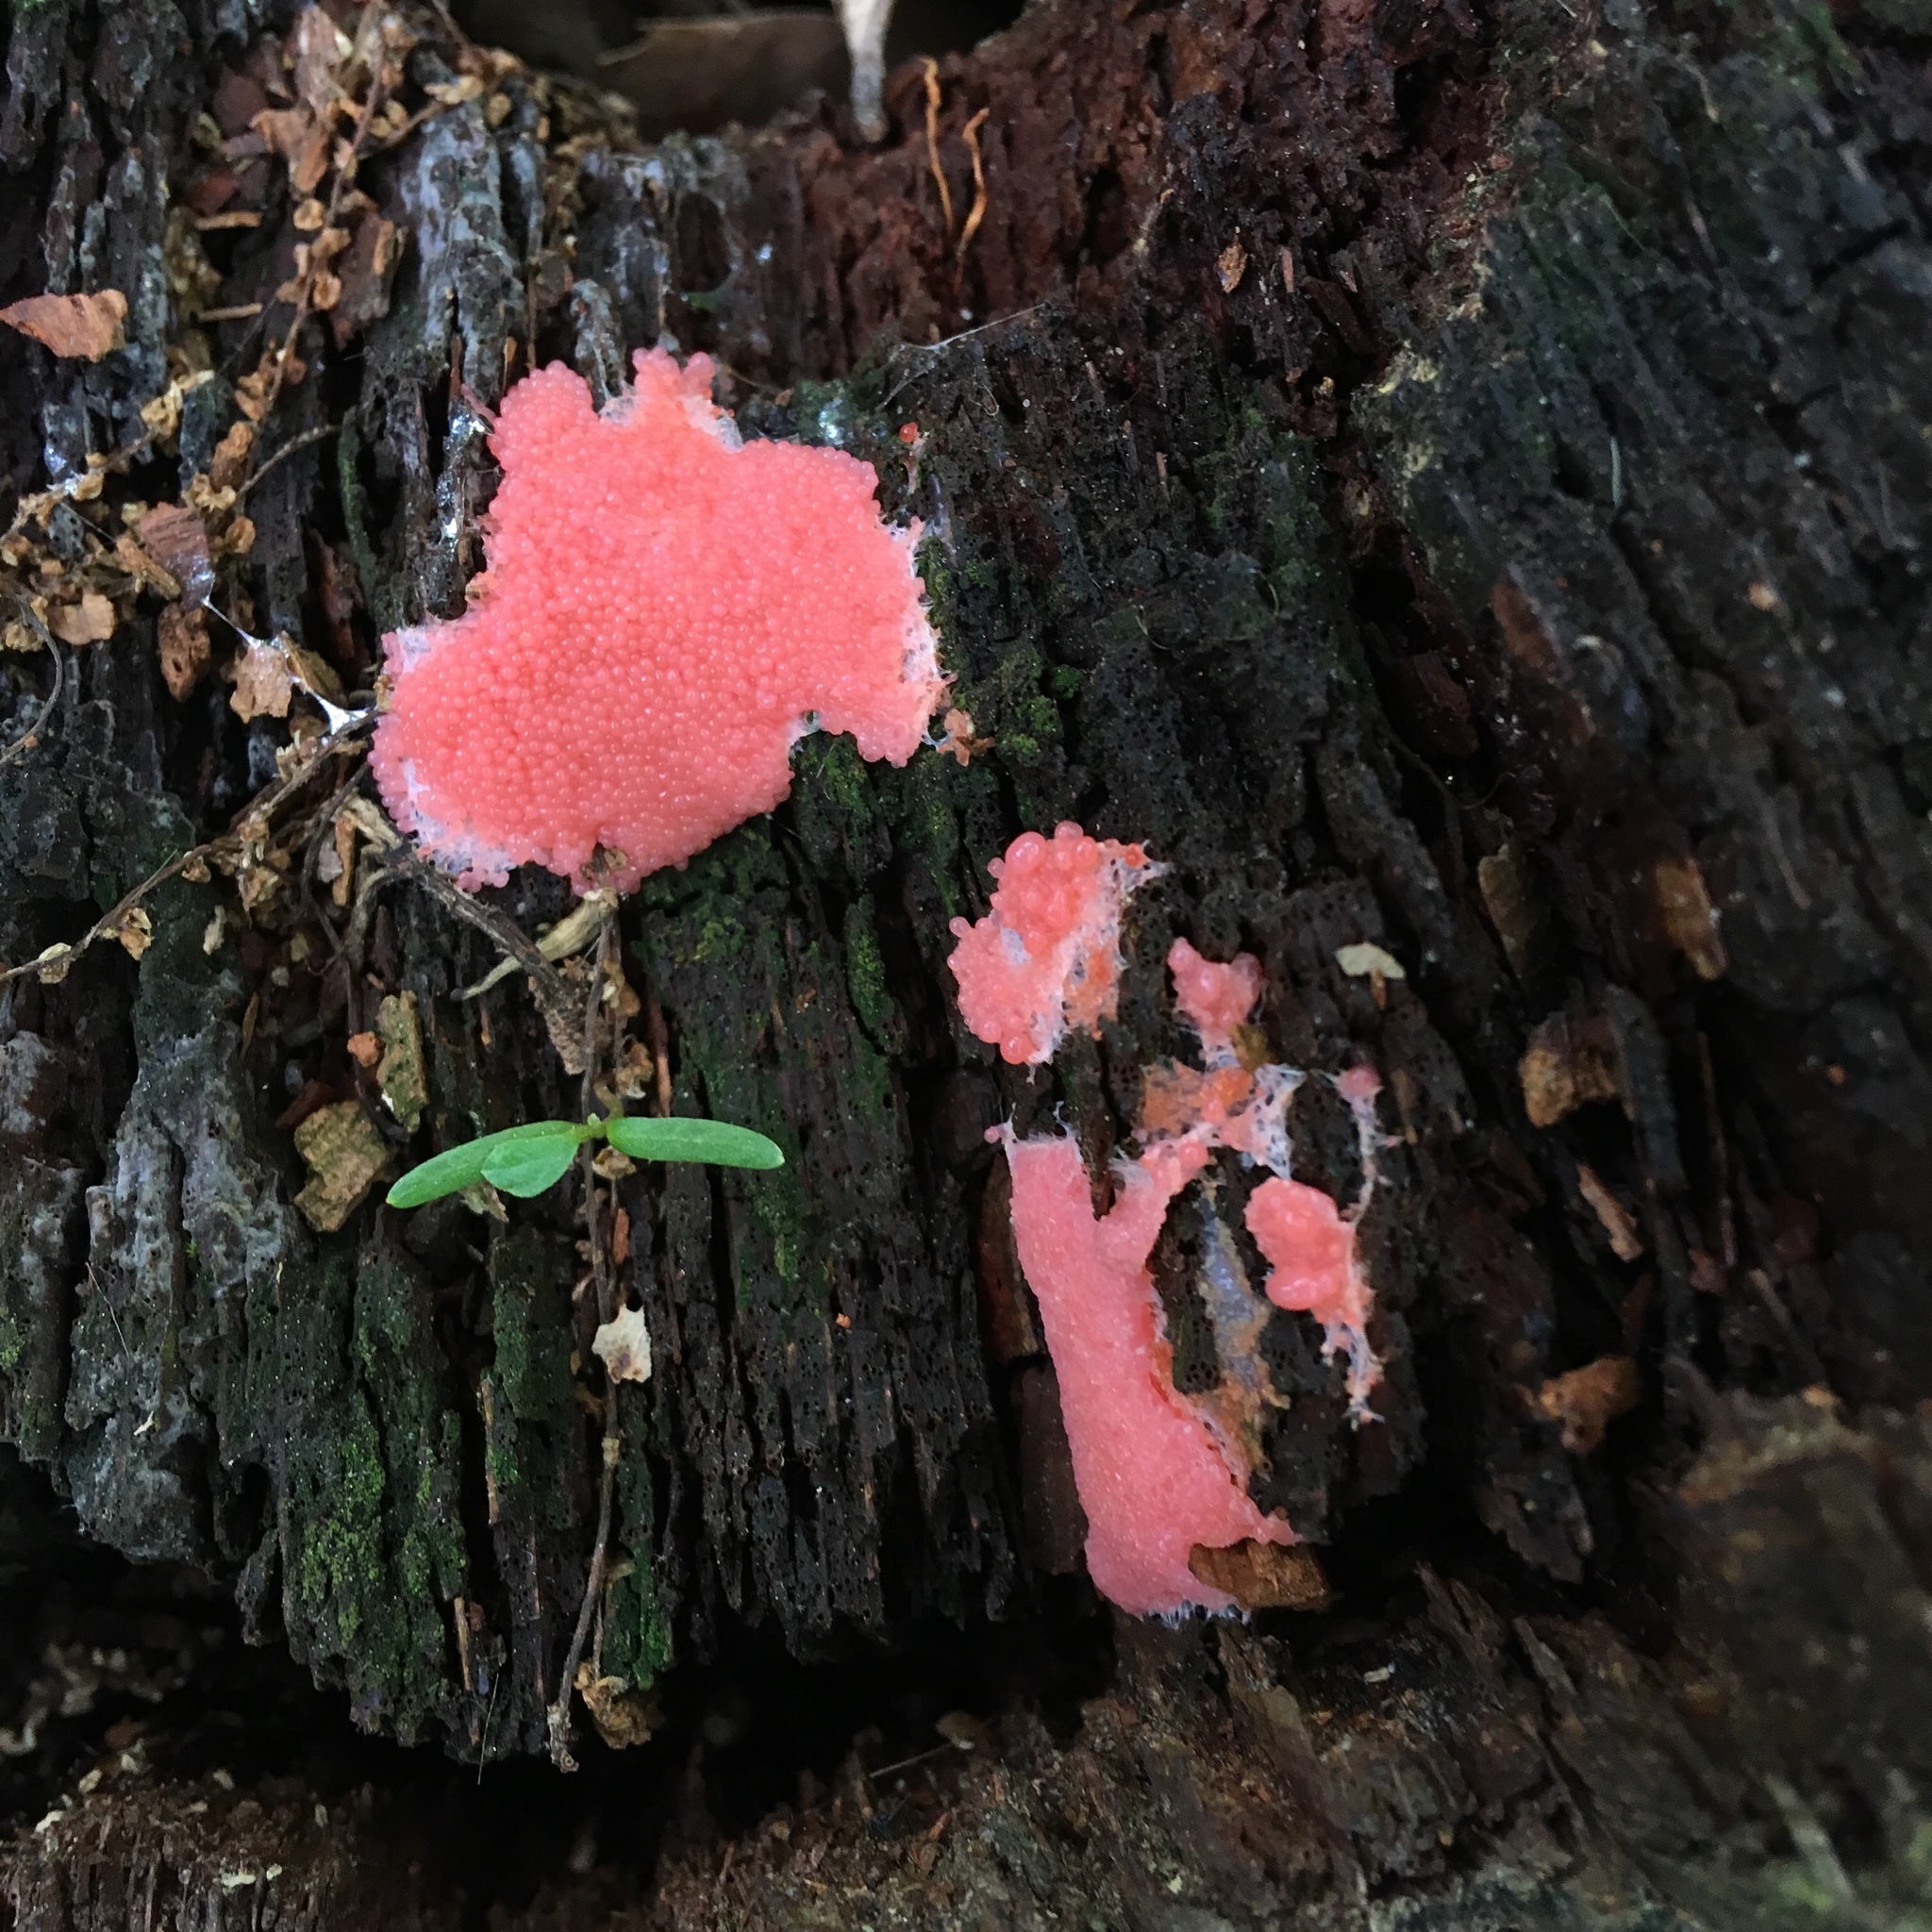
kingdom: Protozoa
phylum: Mycetozoa
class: Myxomycetes
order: Cribrariales
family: Tubiferaceae
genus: Tubifera
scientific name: Tubifera ferruginosa
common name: Red raspberry slime mold
